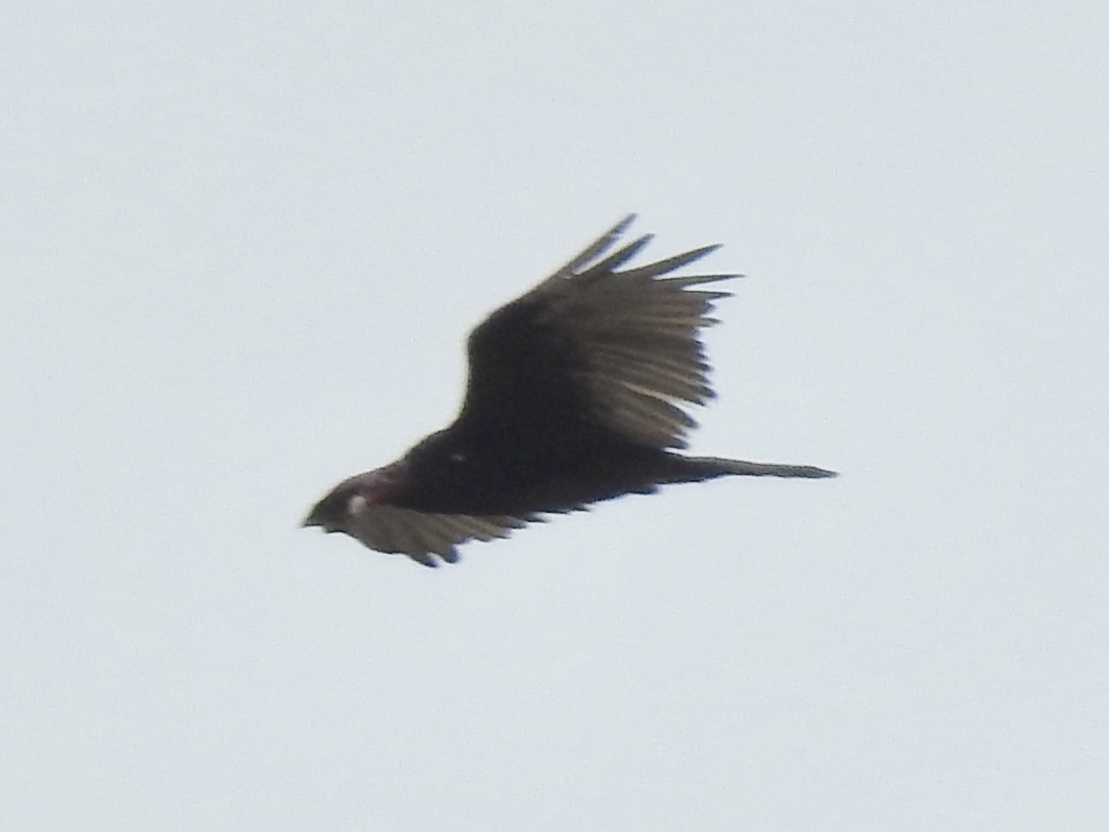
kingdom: Animalia
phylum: Chordata
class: Aves
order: Accipitriformes
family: Cathartidae
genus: Cathartes
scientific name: Cathartes aura
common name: Turkey vulture
